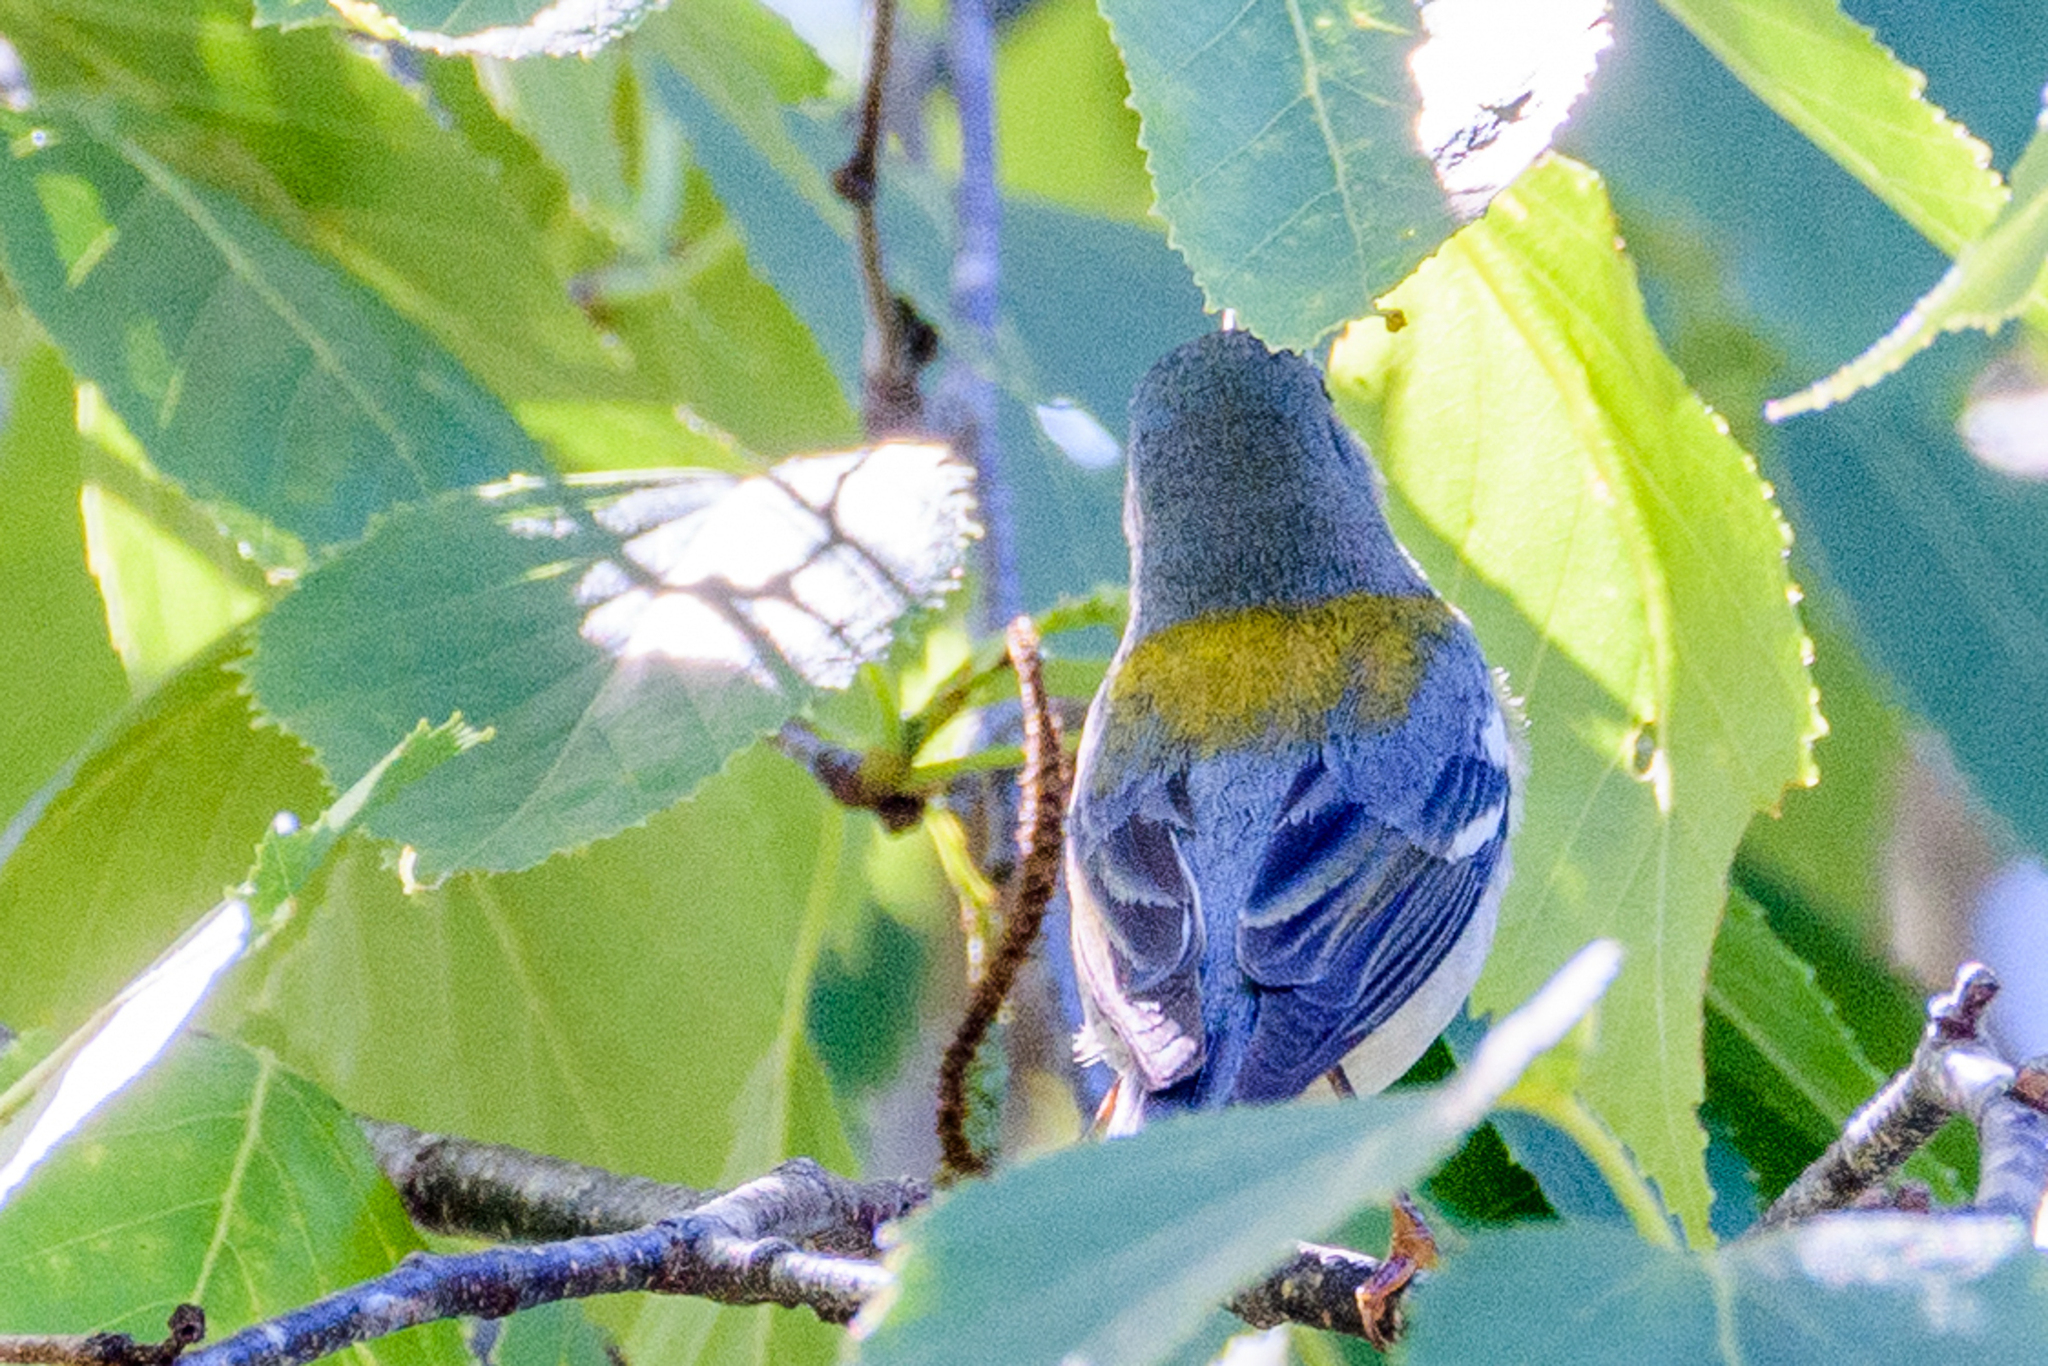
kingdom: Animalia
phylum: Chordata
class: Aves
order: Passeriformes
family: Parulidae
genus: Setophaga
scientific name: Setophaga americana
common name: Northern parula
